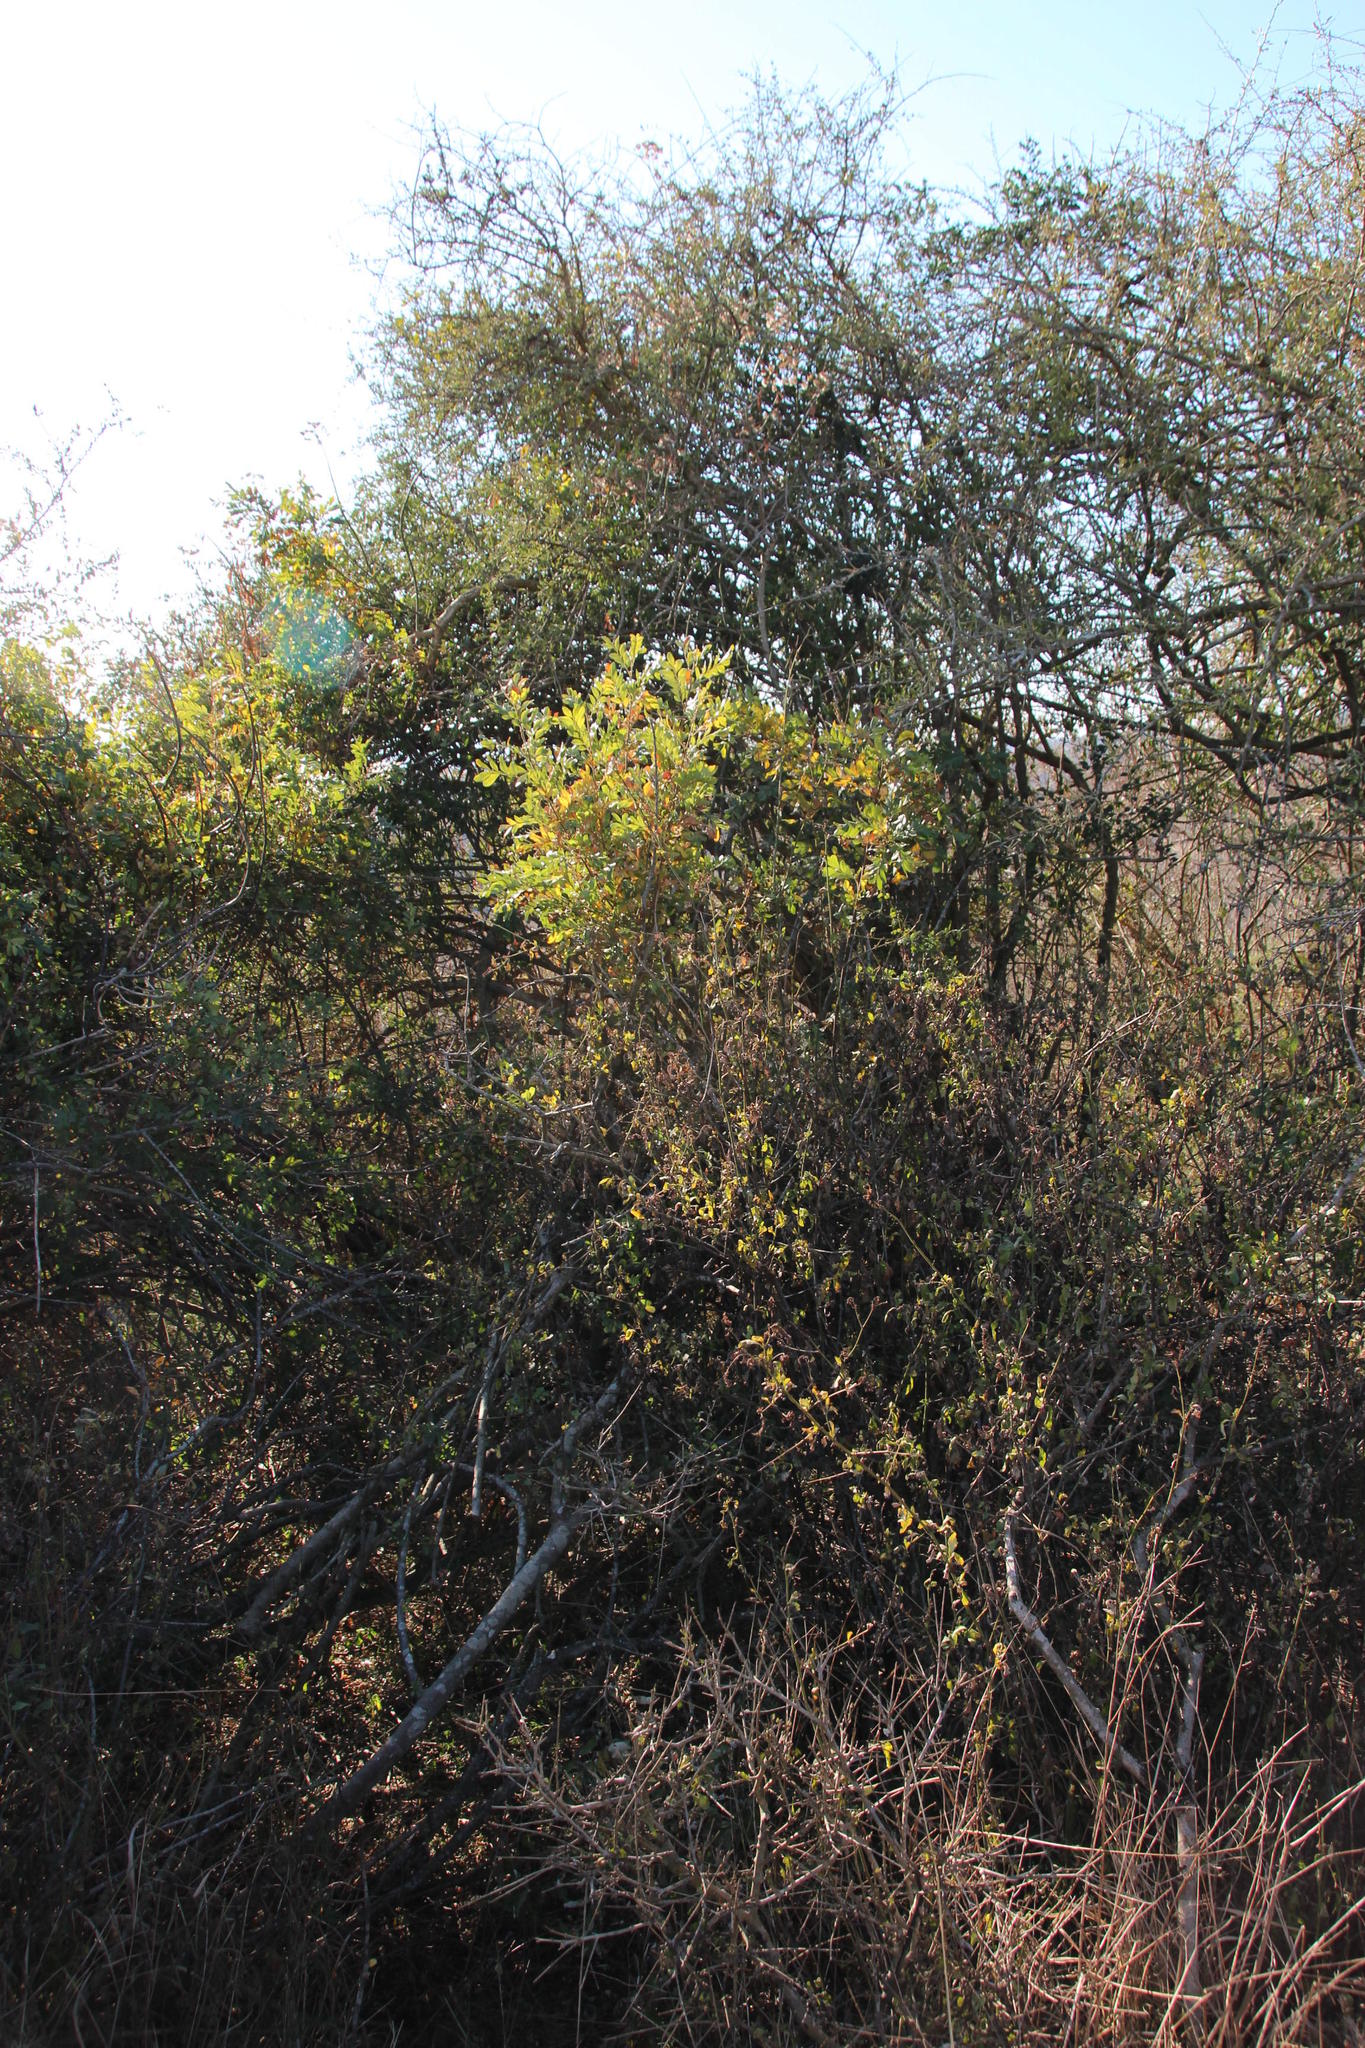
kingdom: Plantae
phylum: Tracheophyta
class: Magnoliopsida
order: Sapindales
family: Sapindaceae
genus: Hippobromus
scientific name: Hippobromus pauciflorus
